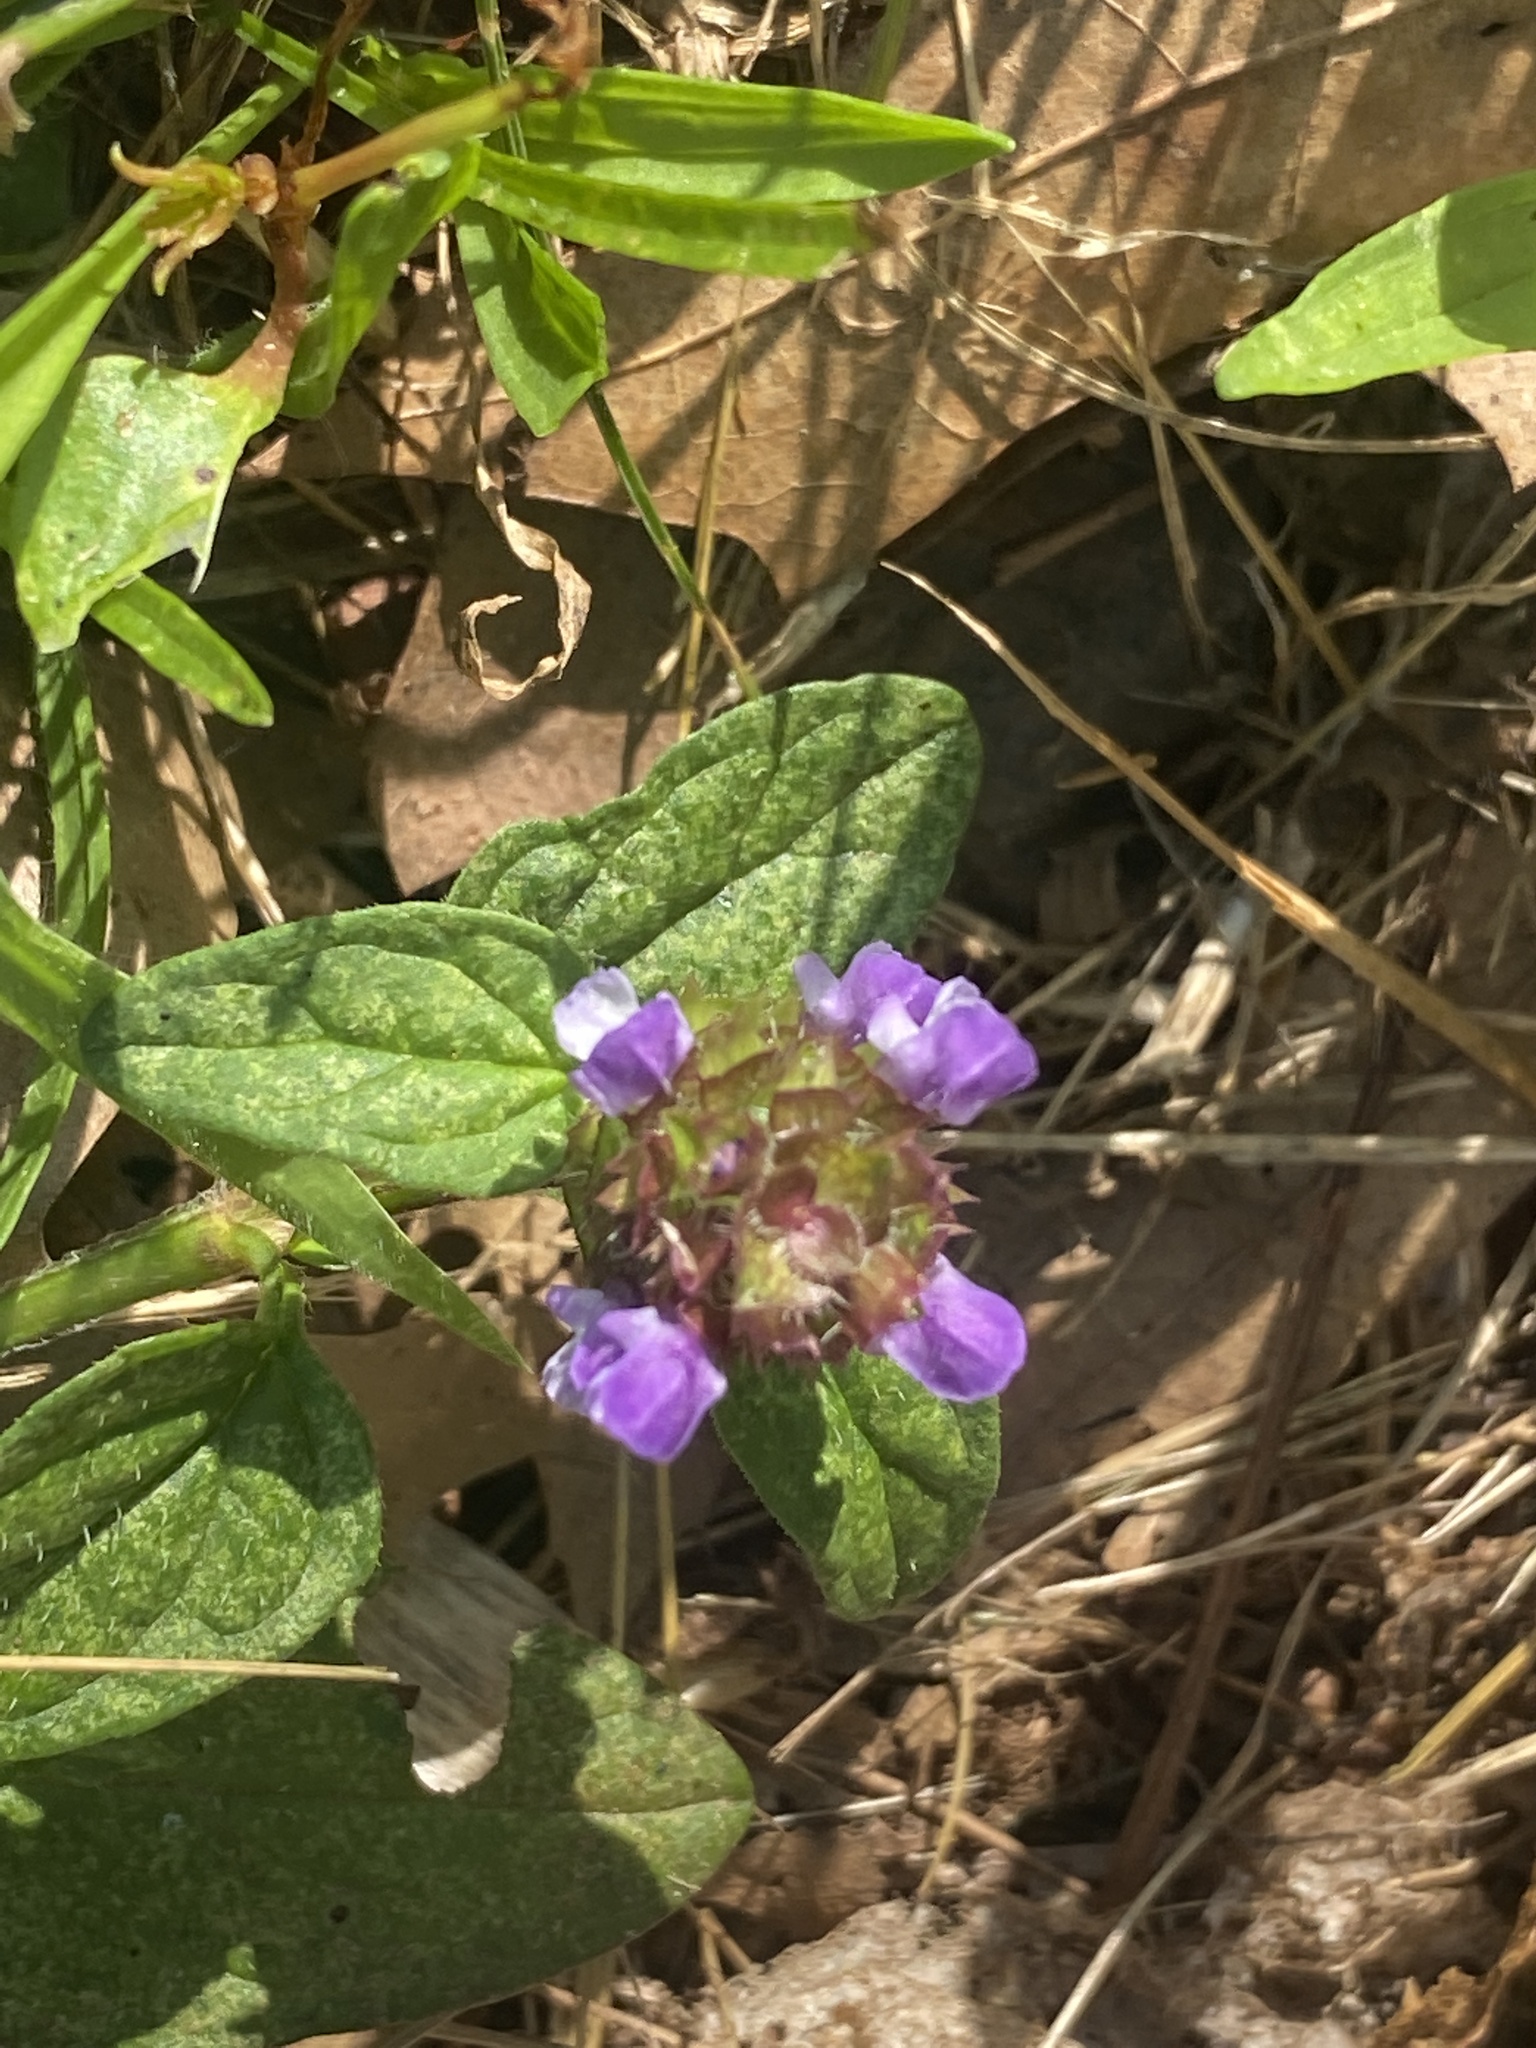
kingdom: Plantae
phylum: Tracheophyta
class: Magnoliopsida
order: Lamiales
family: Lamiaceae
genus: Prunella
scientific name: Prunella vulgaris
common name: Heal-all
